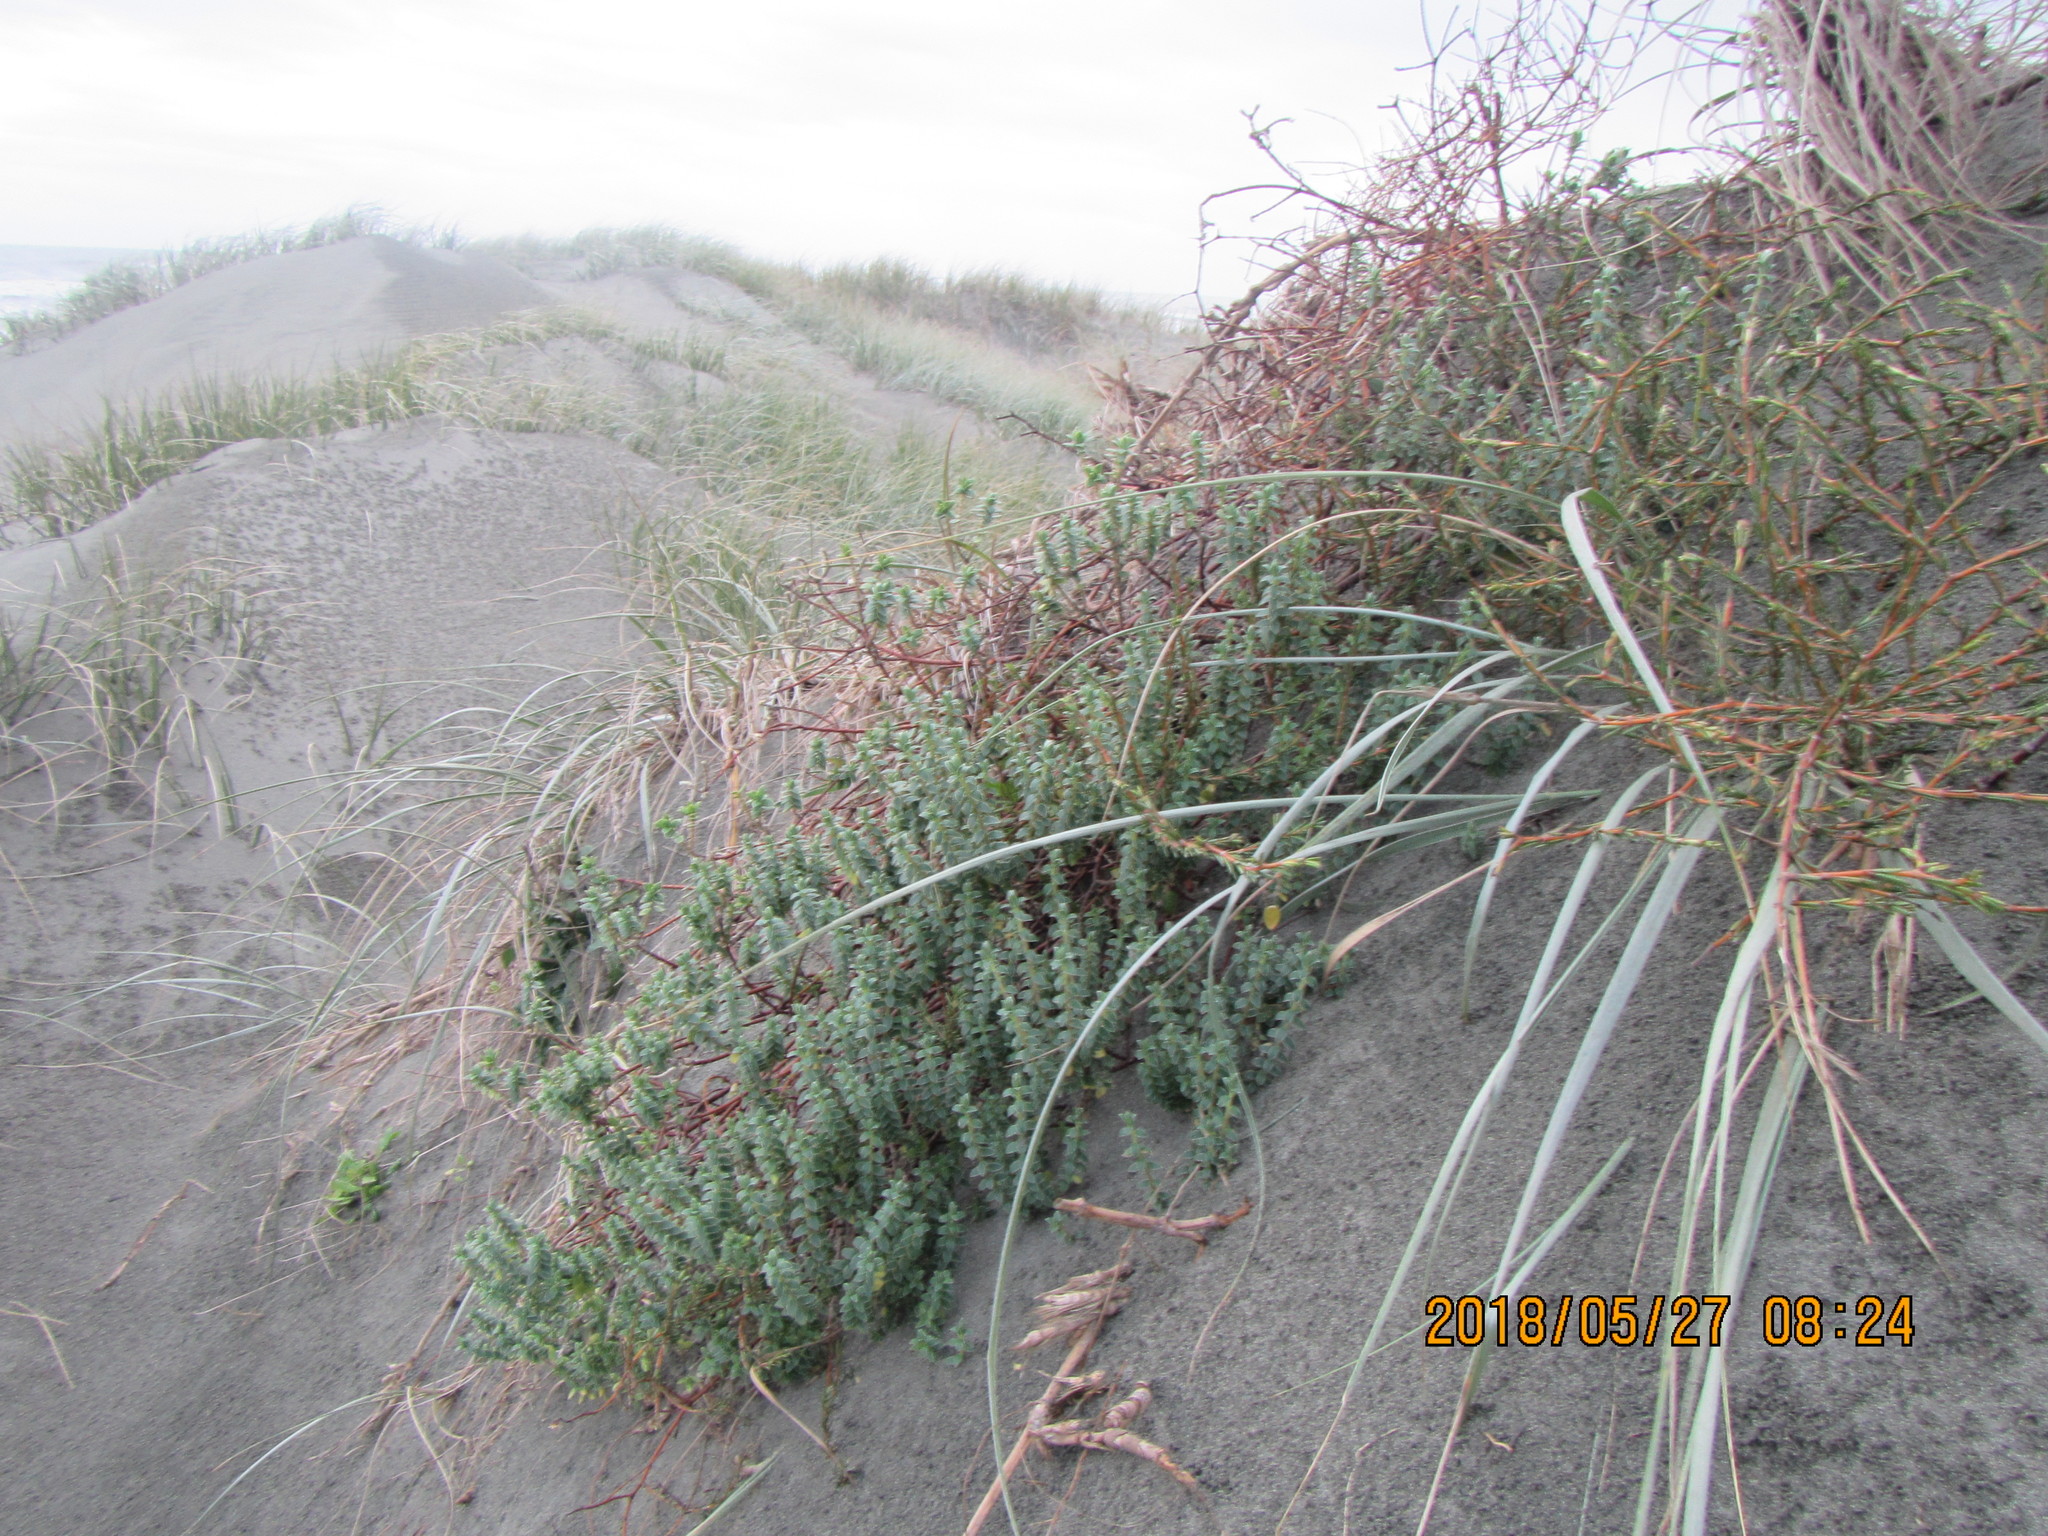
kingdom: Plantae
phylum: Tracheophyta
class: Magnoliopsida
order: Malvales
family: Thymelaeaceae
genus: Pimelea
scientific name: Pimelea villosa
